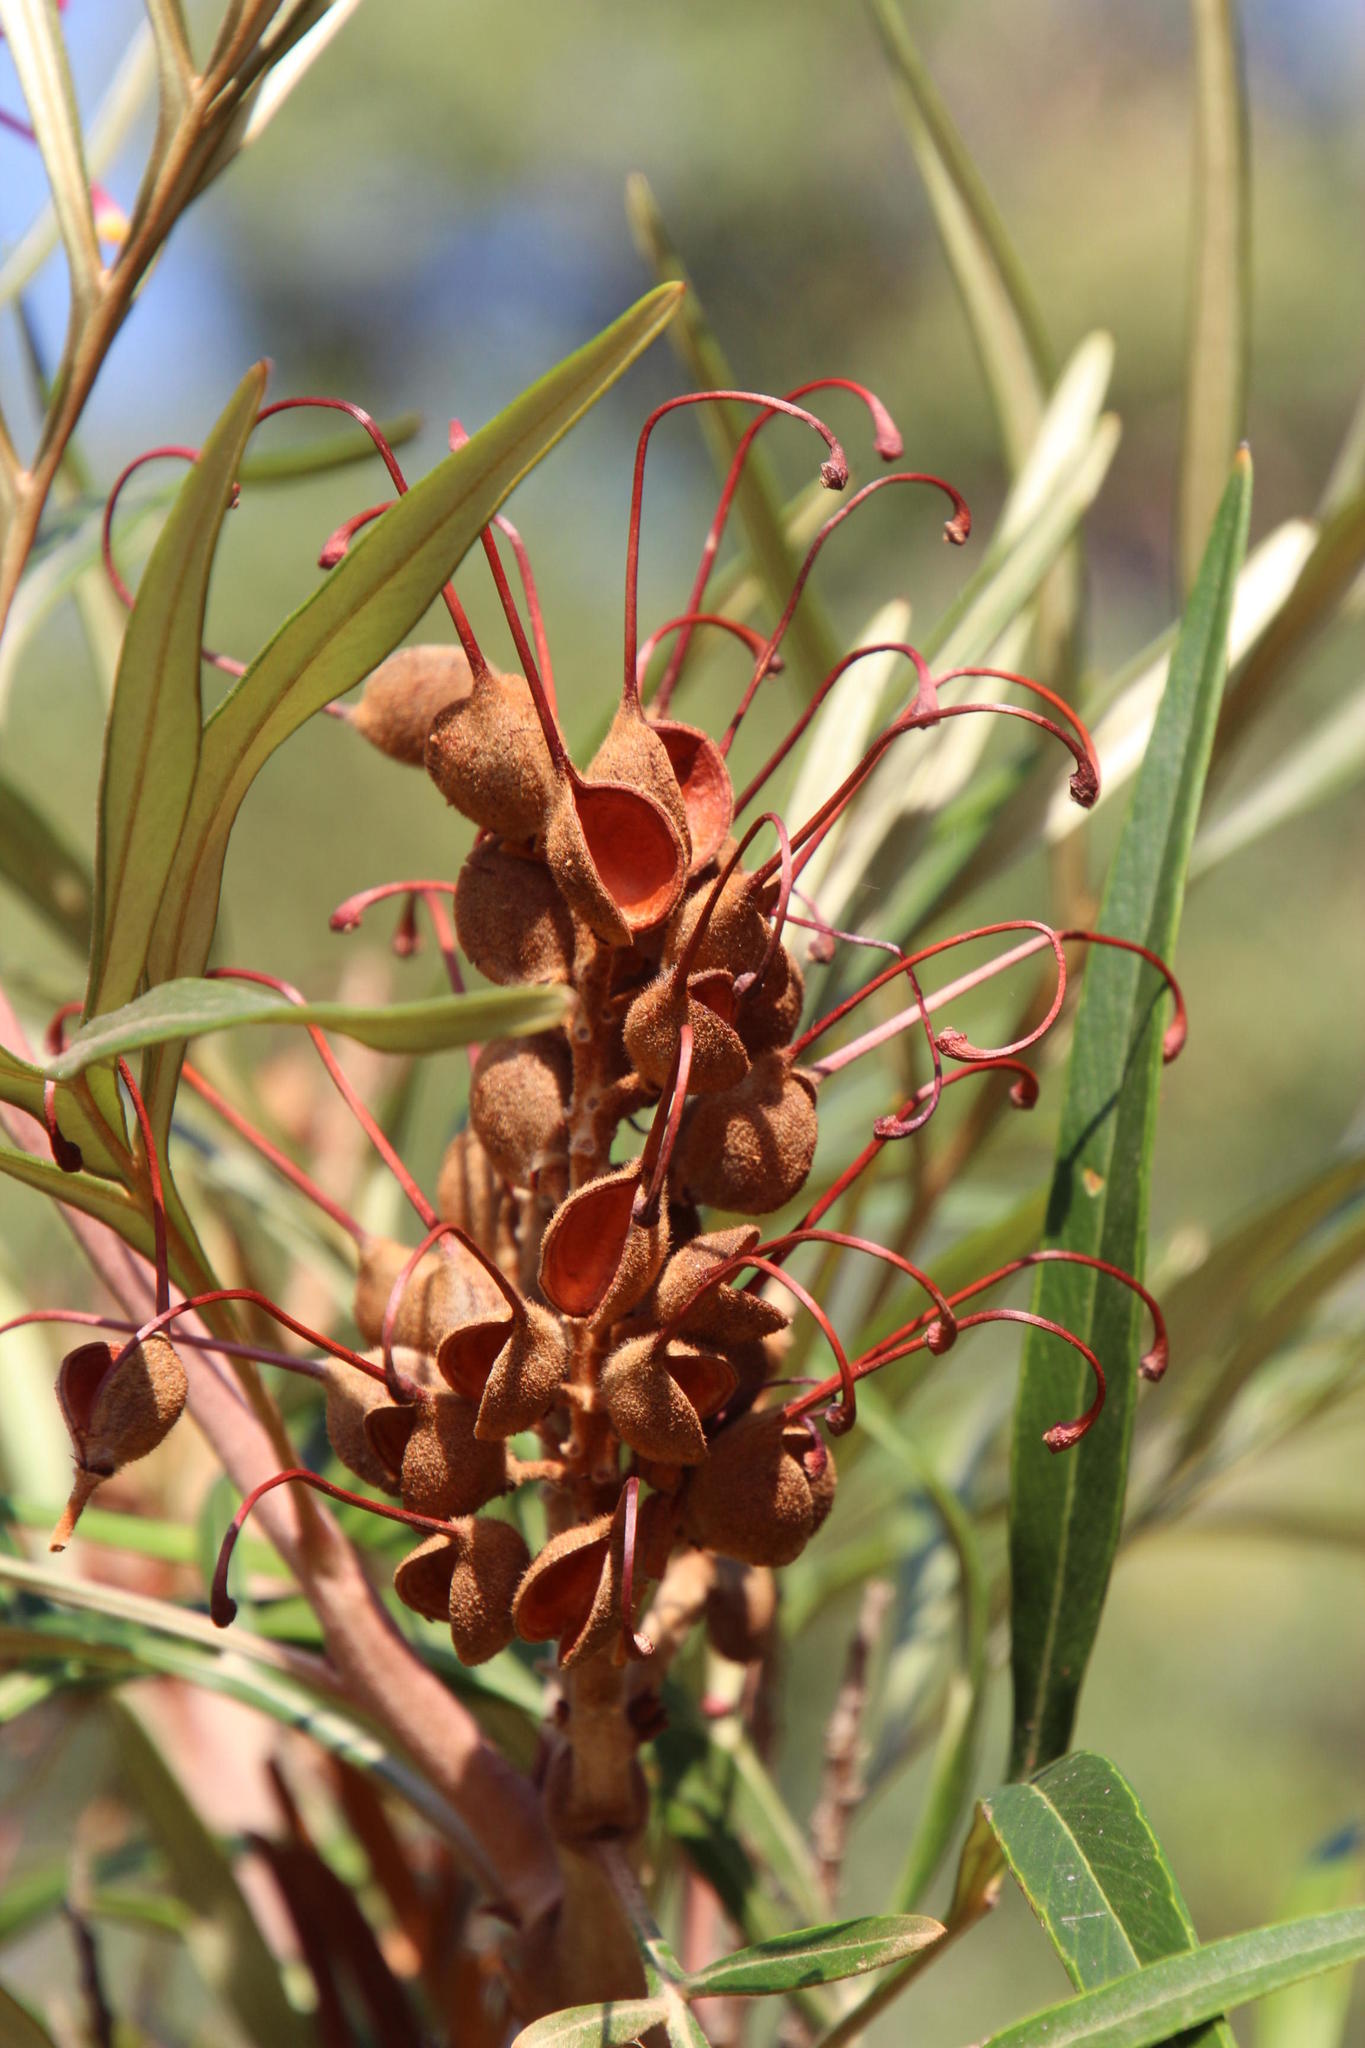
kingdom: Plantae
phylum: Tracheophyta
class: Magnoliopsida
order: Proteales
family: Proteaceae
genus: Grevillea
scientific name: Grevillea banksii
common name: Kahili flower
